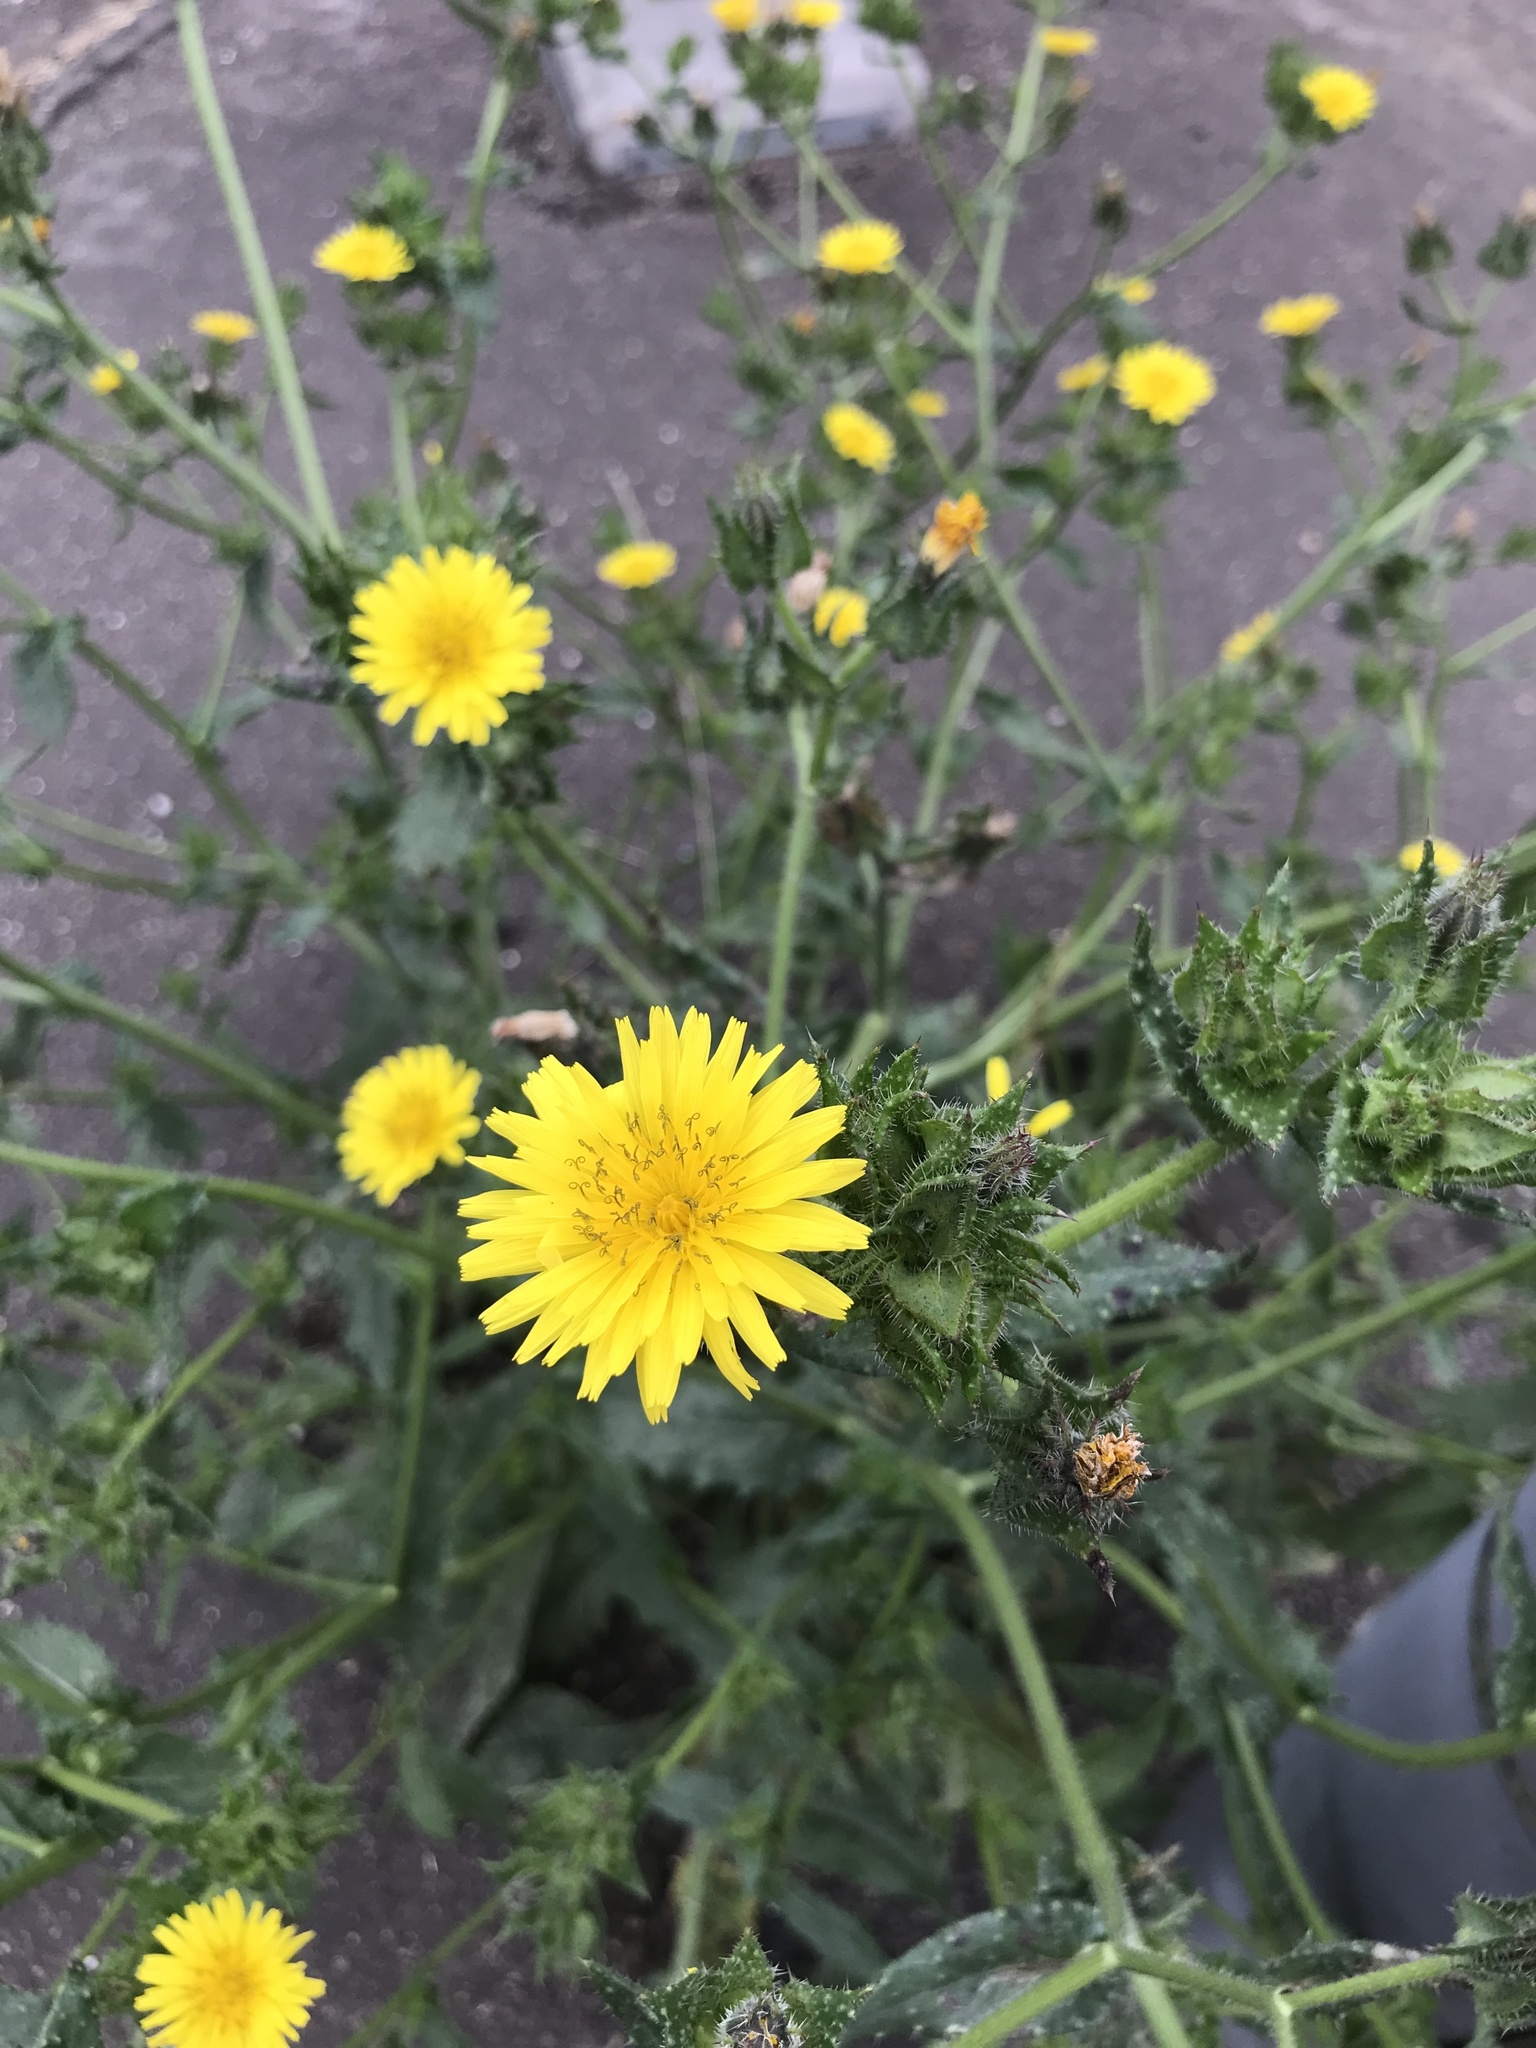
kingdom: Plantae
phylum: Tracheophyta
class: Magnoliopsida
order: Asterales
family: Asteraceae
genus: Helminthotheca
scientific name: Helminthotheca echioides
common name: Ox-tongue
